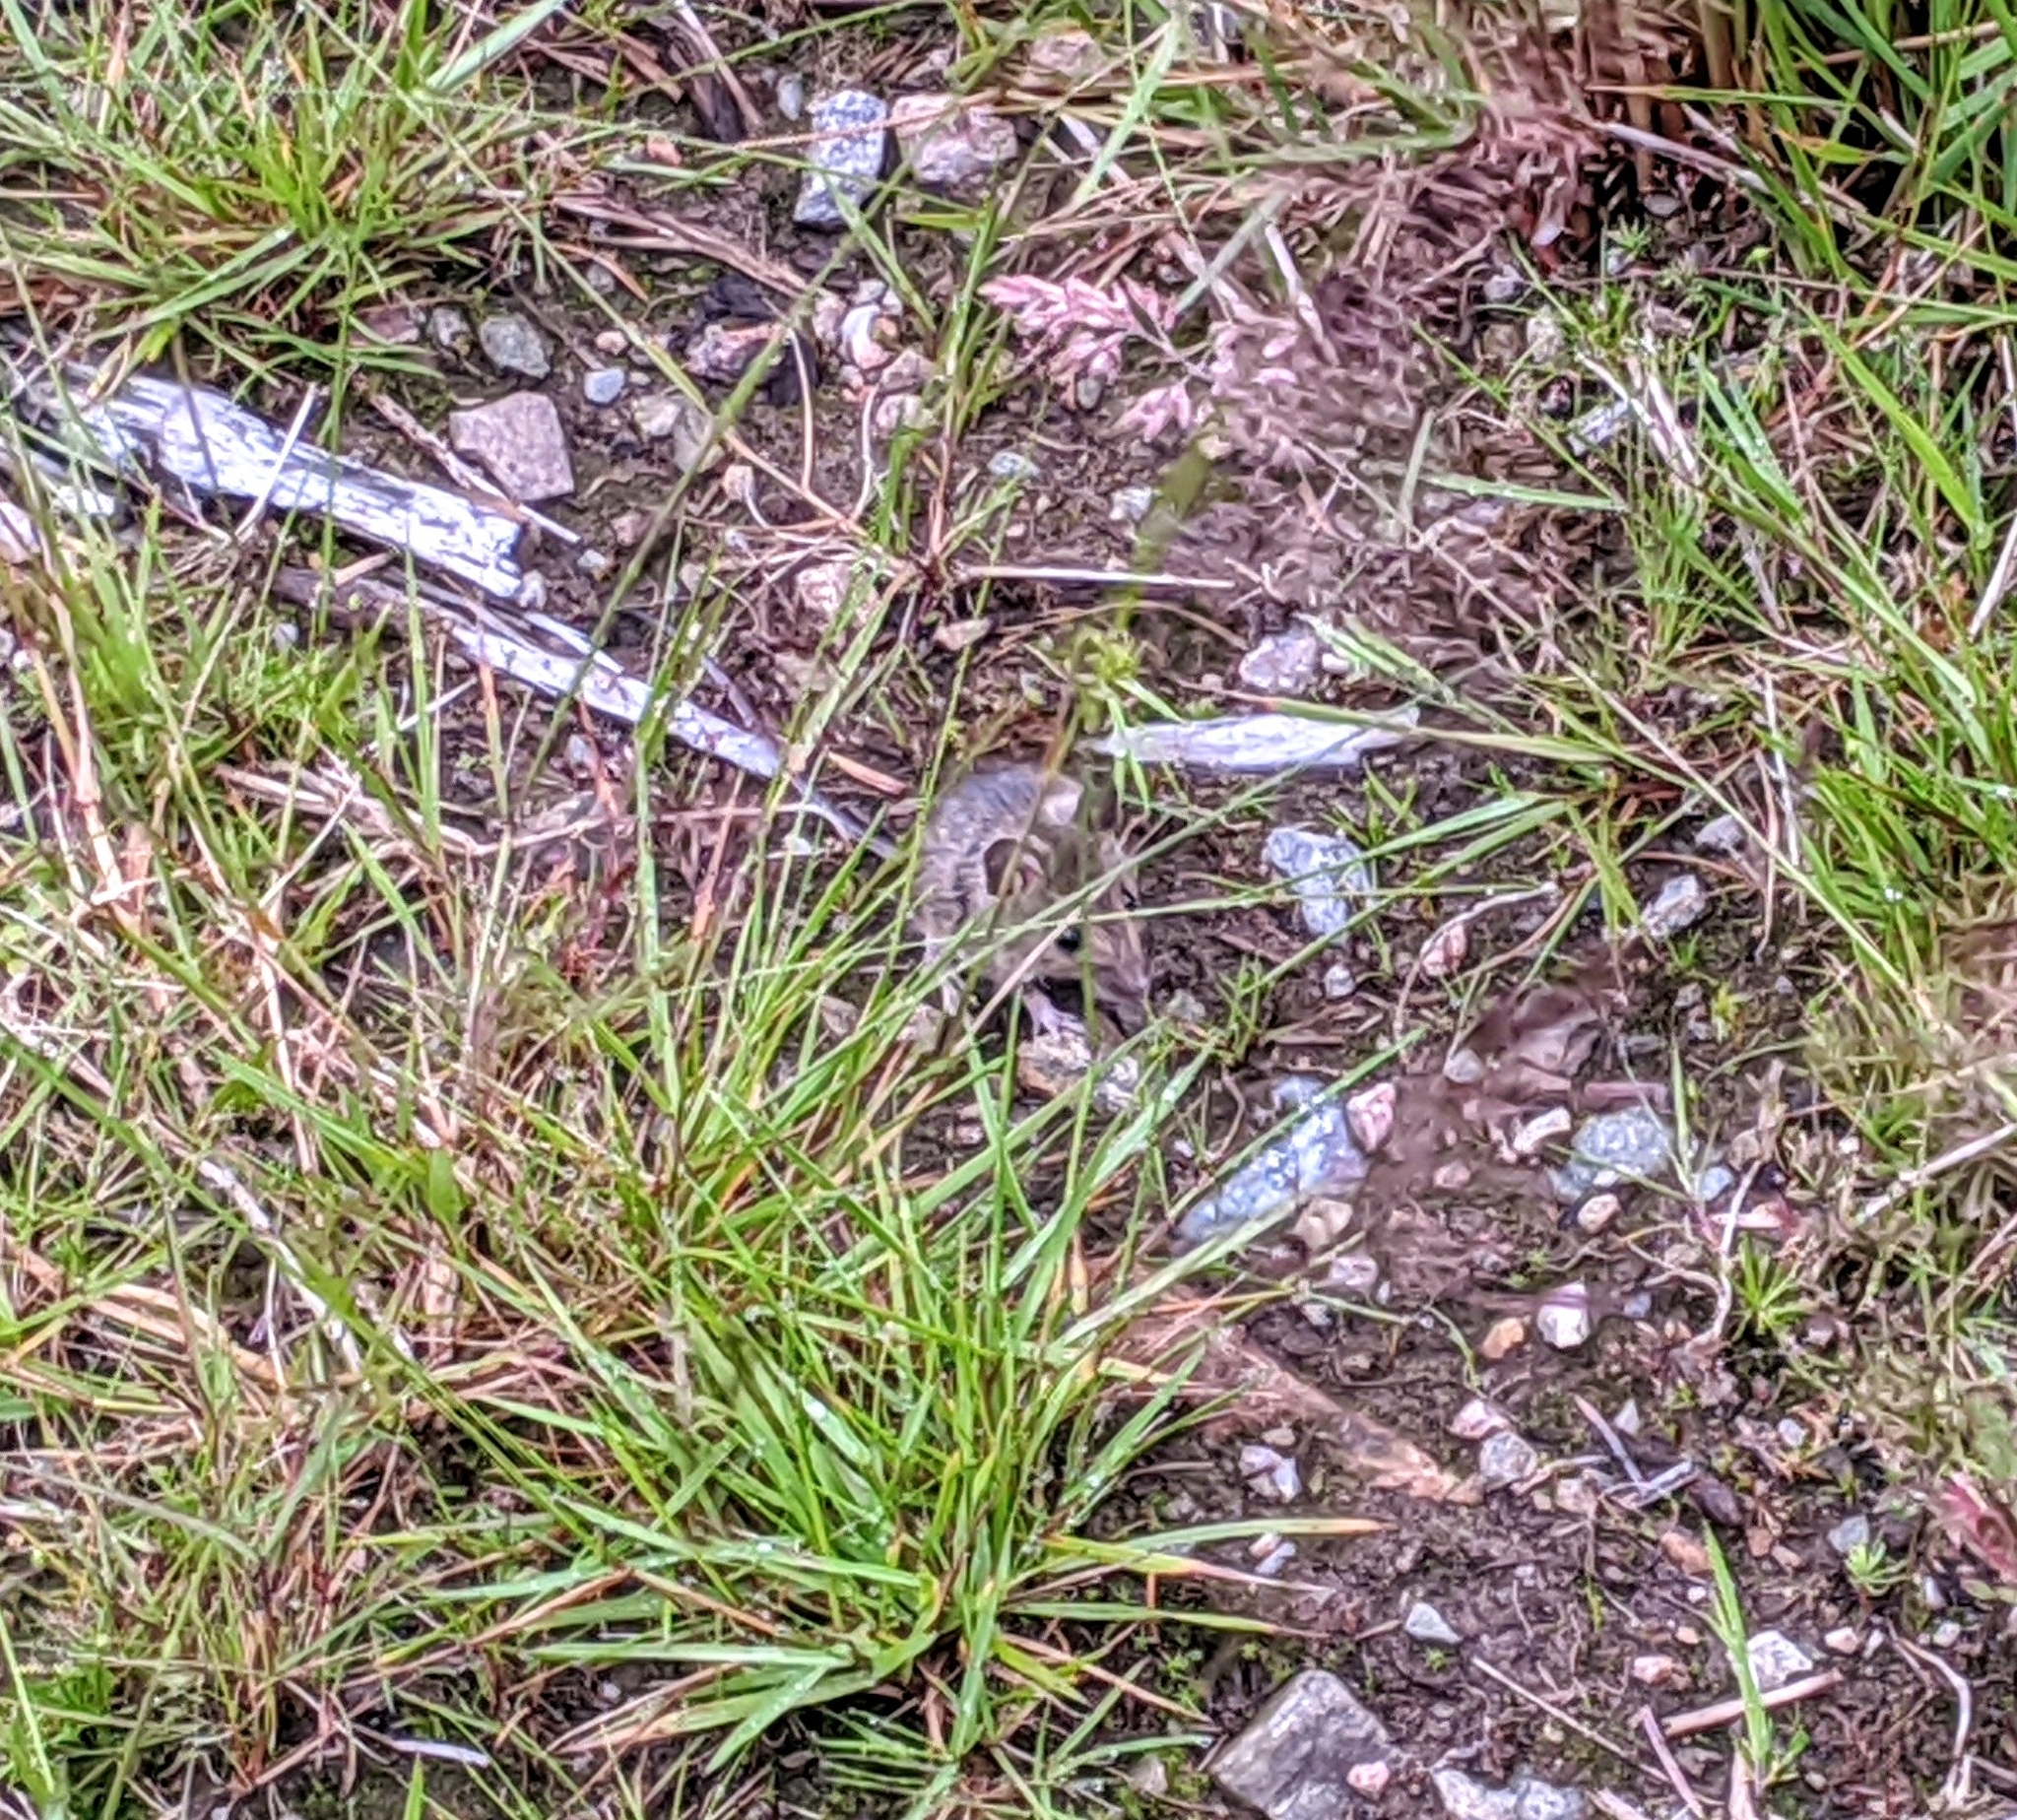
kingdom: Animalia
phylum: Chordata
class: Mammalia
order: Rodentia
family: Muridae
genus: Apodemus
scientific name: Apodemus sylvaticus
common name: Wood mouse
